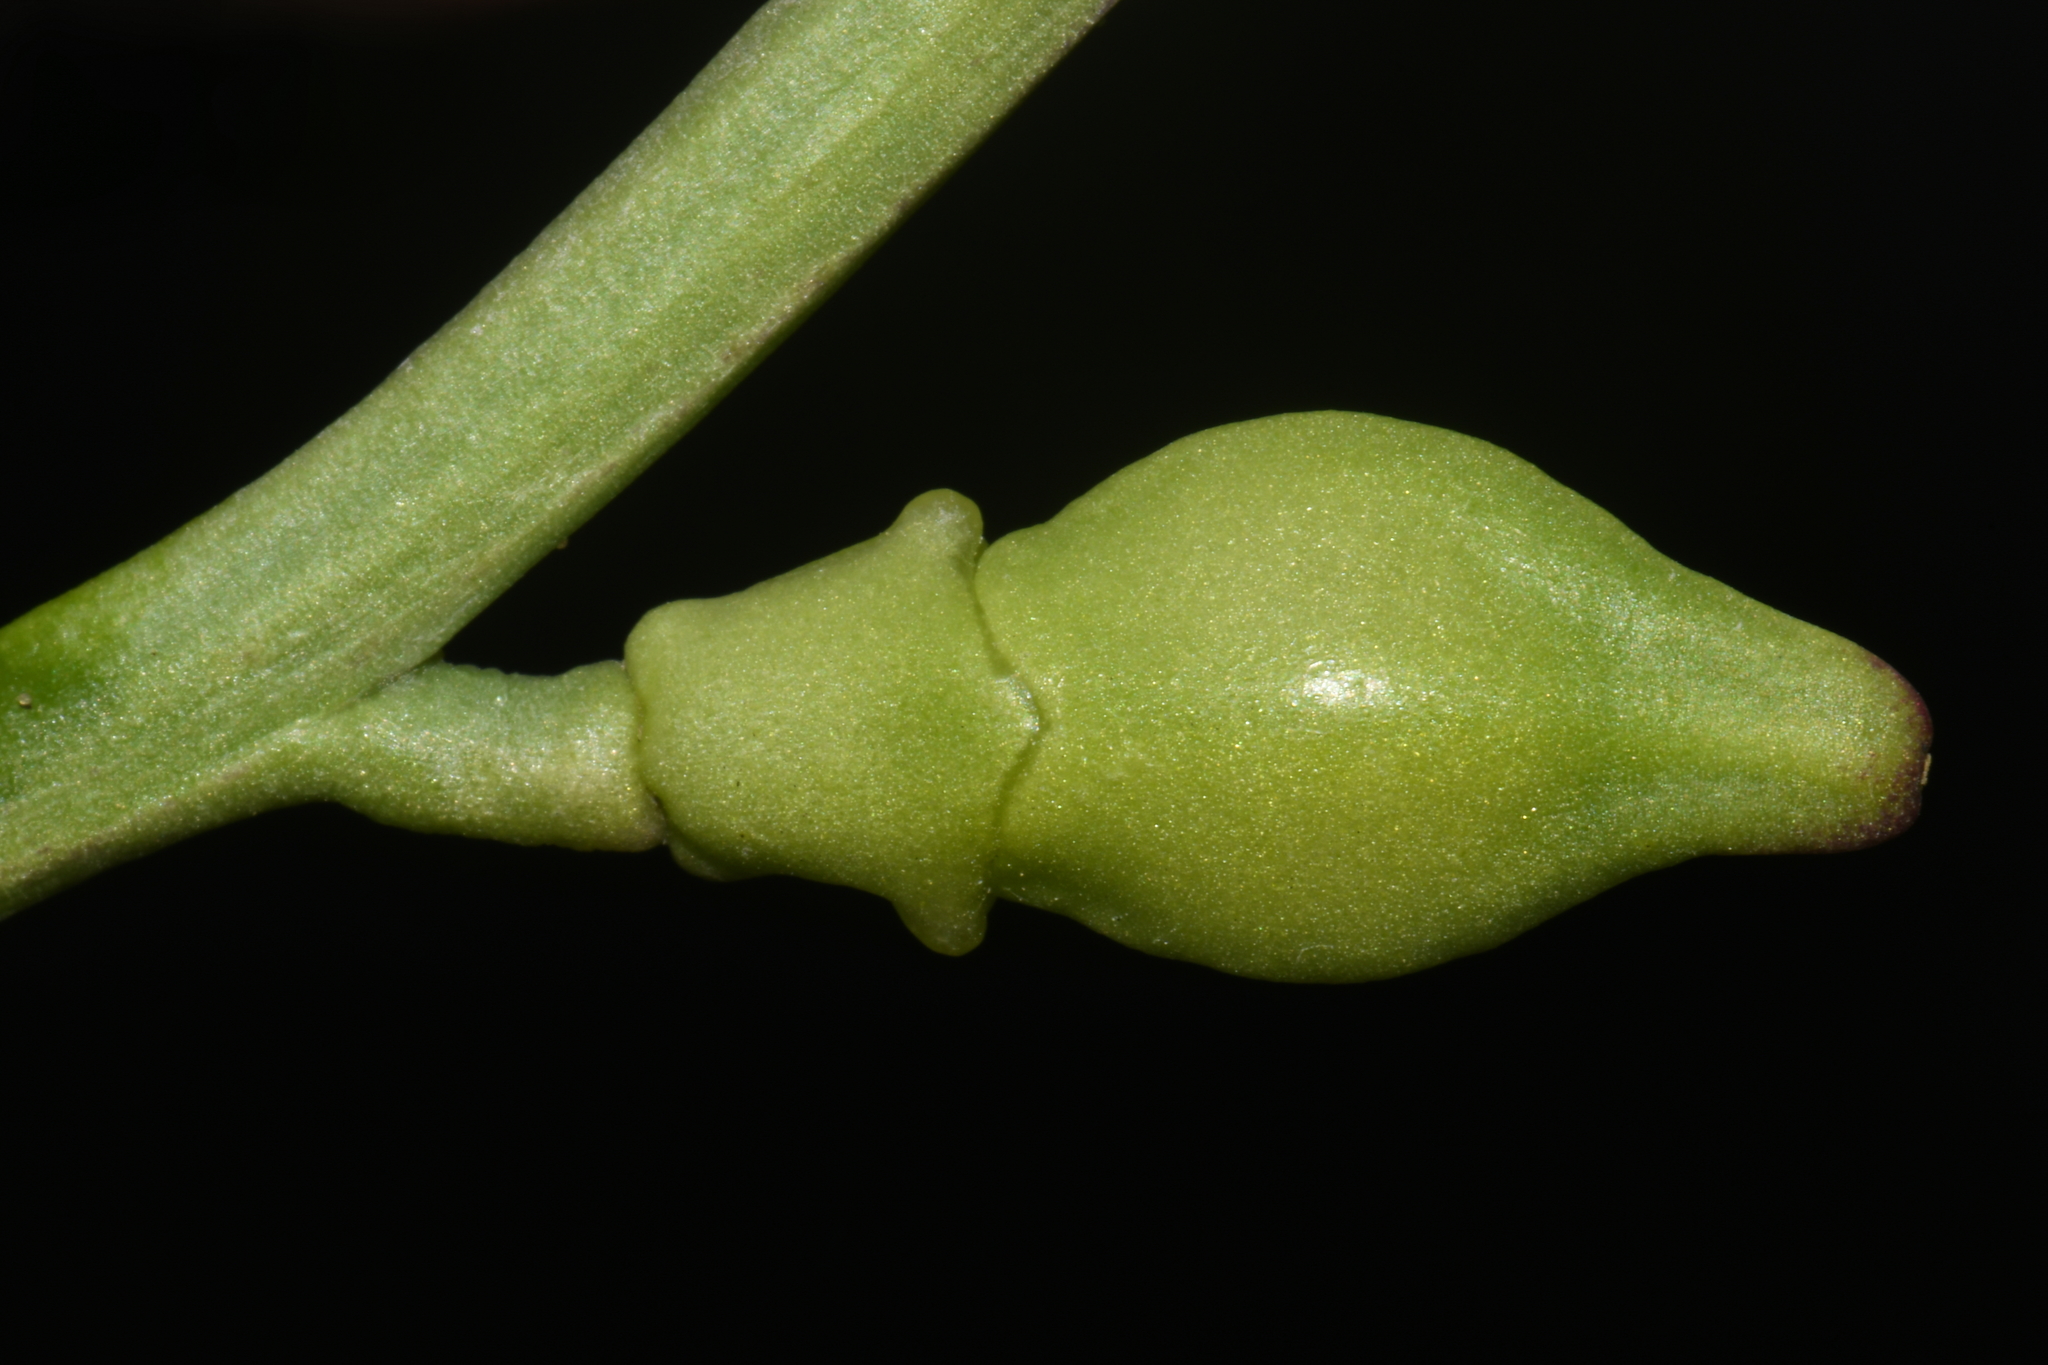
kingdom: Plantae
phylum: Tracheophyta
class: Magnoliopsida
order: Brassicales
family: Brassicaceae
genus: Cakile
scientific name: Cakile maritima
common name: Sea rocket
